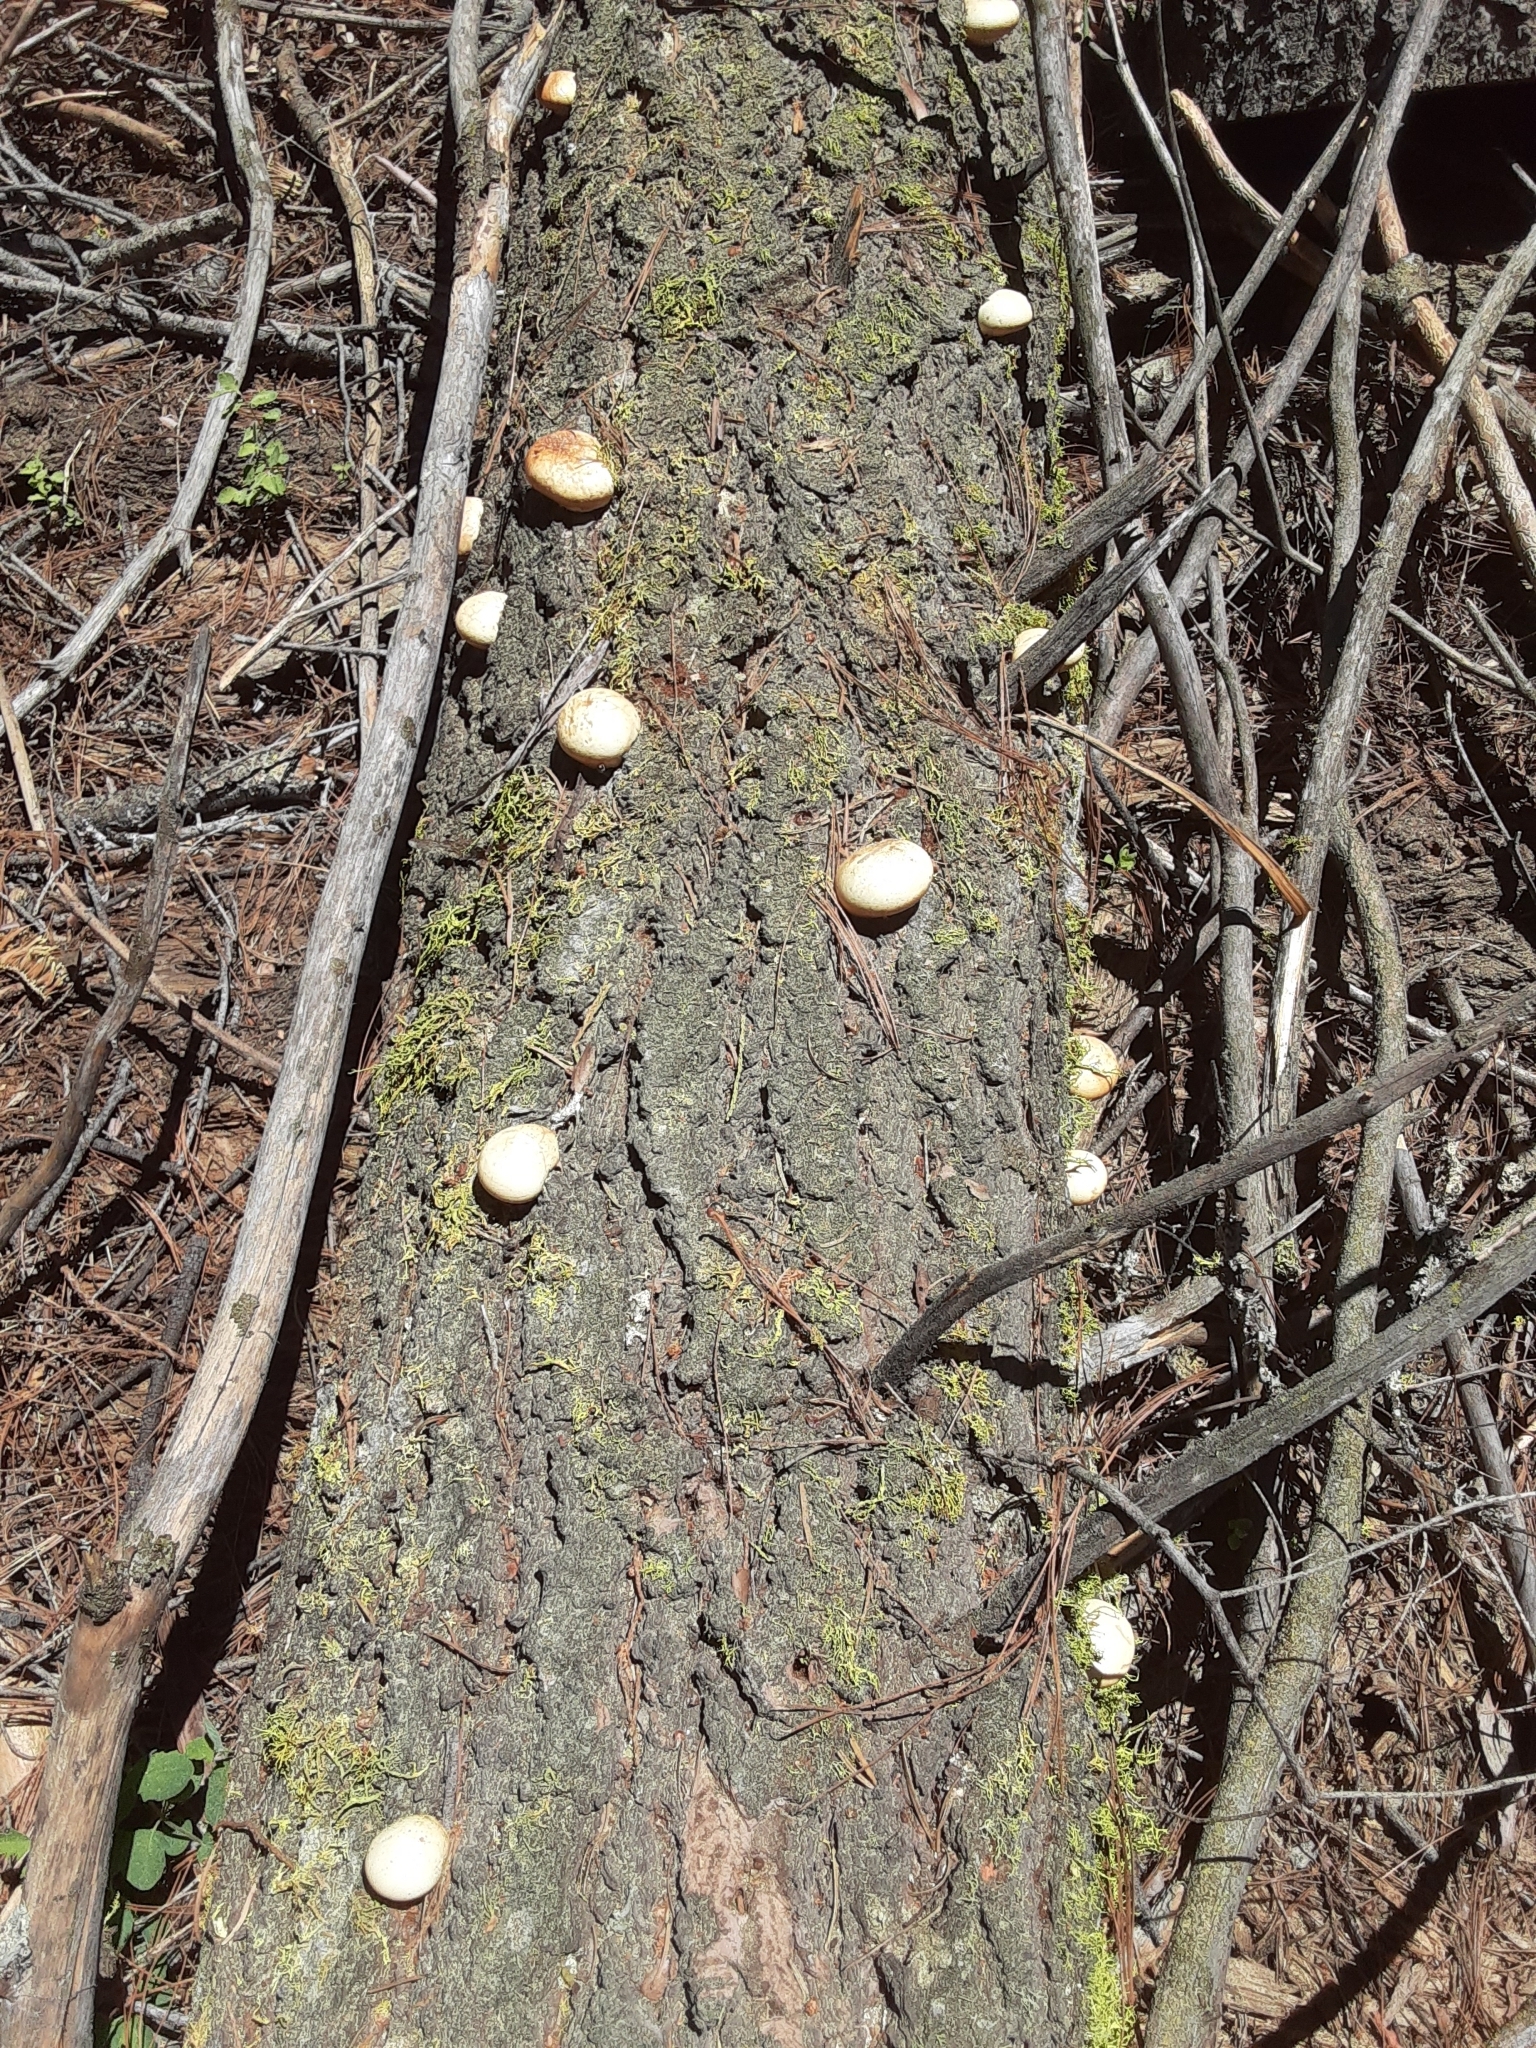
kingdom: Fungi
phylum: Basidiomycota
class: Agaricomycetes
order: Polyporales
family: Polyporaceae
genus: Cryptoporus
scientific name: Cryptoporus volvatus
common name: Veiled polypore
